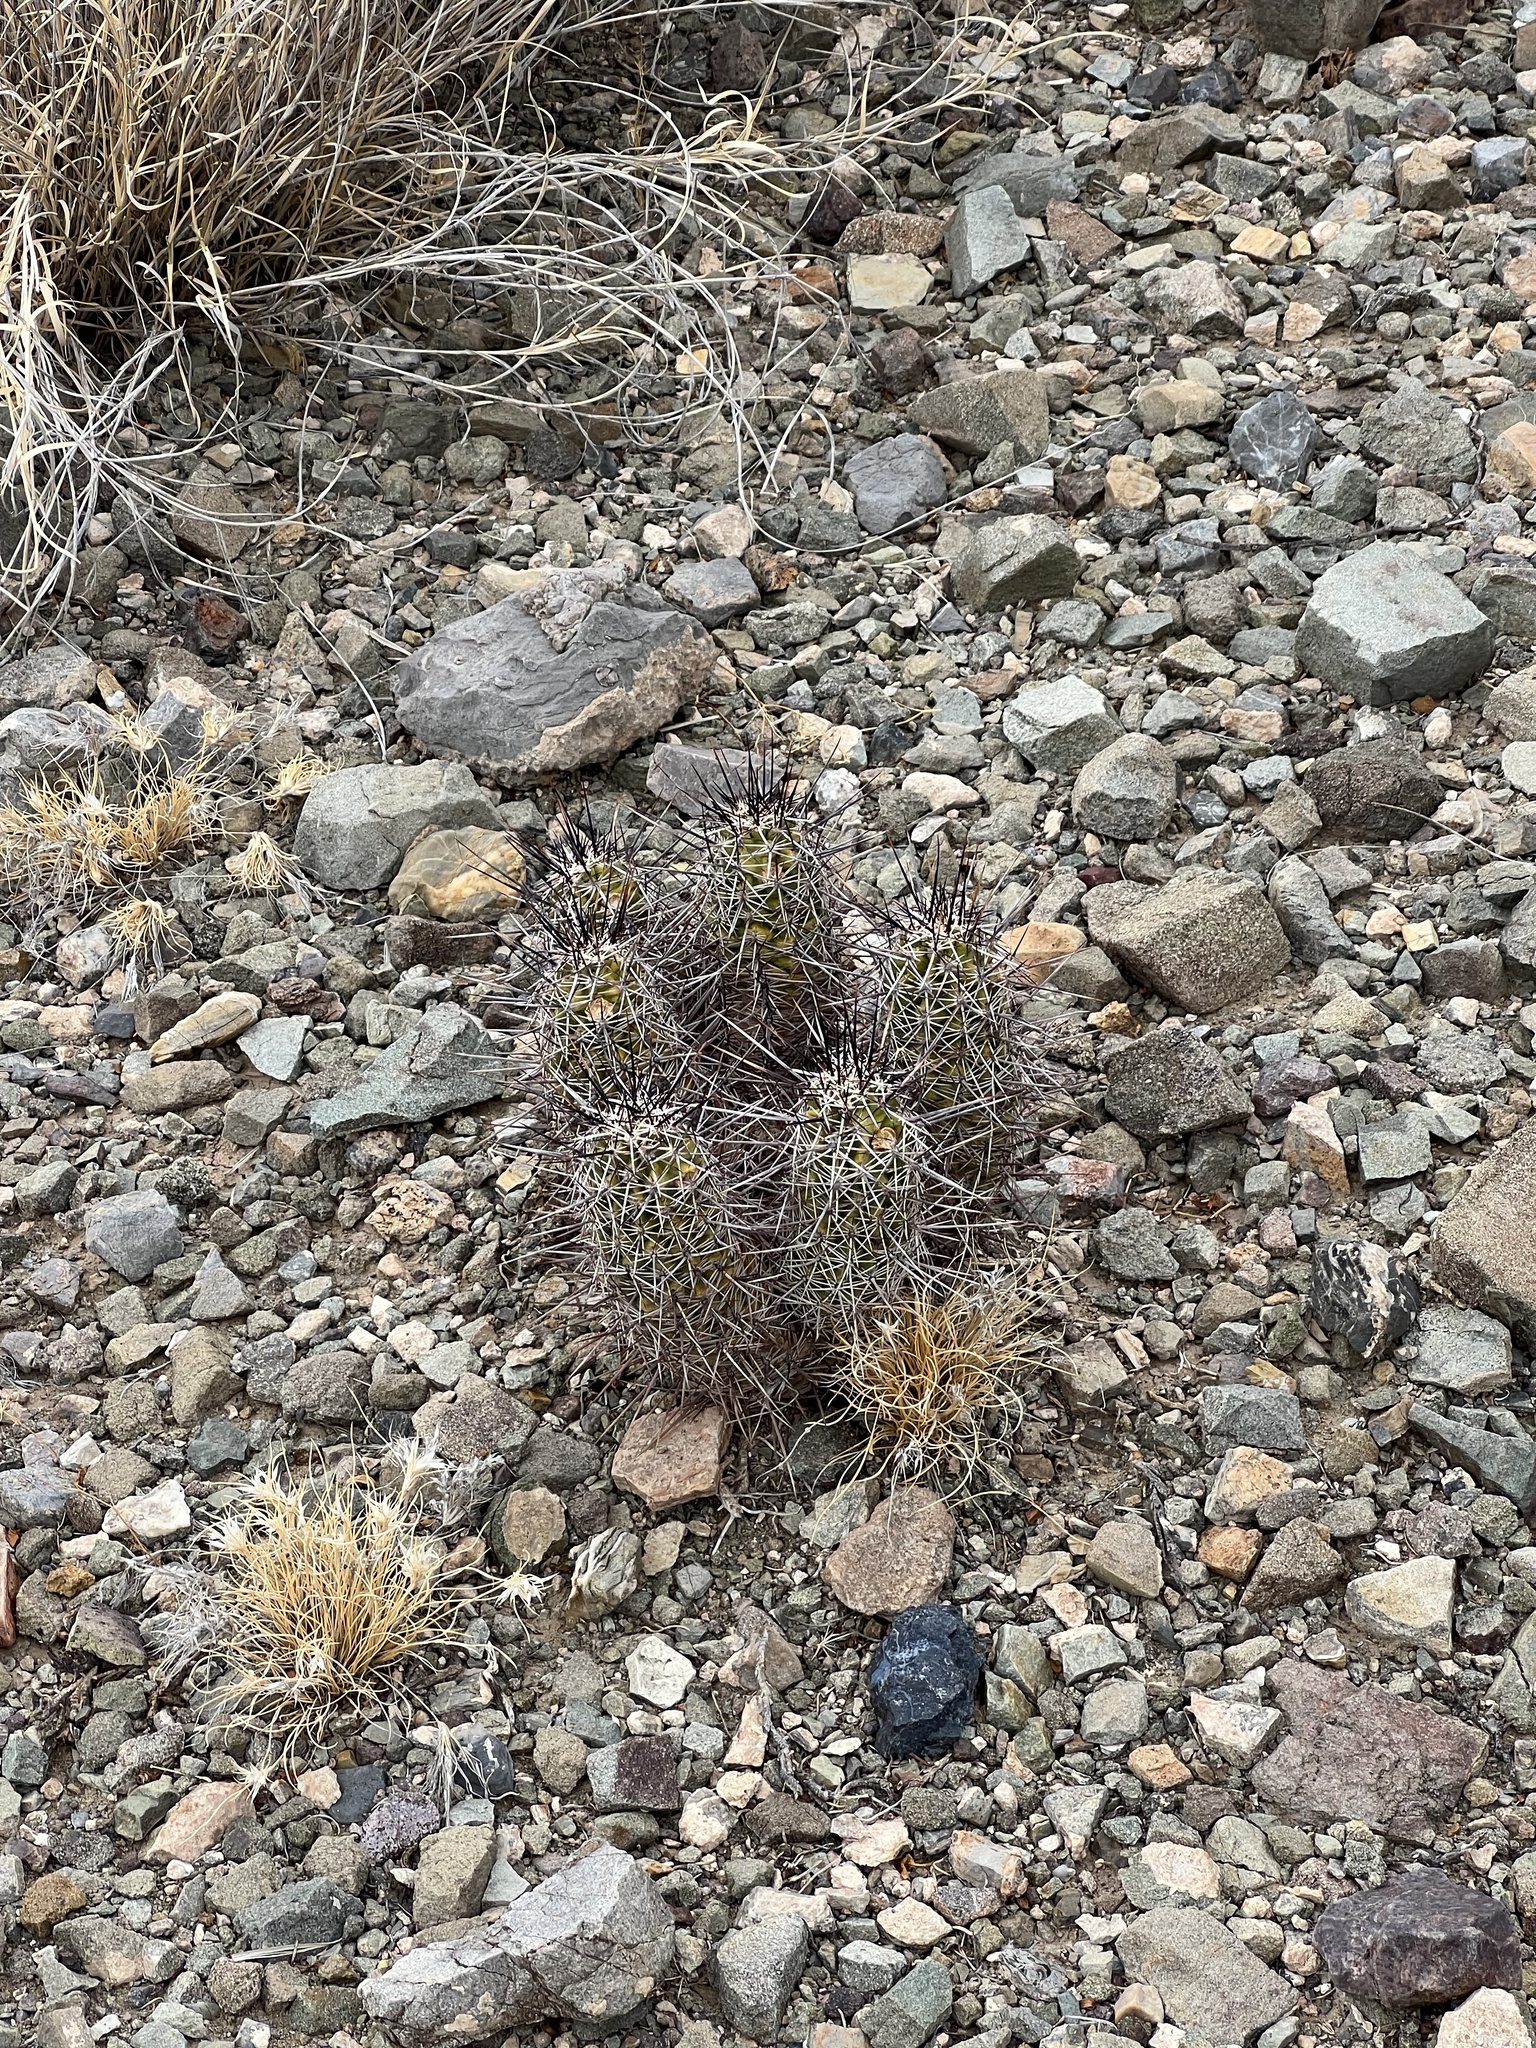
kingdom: Plantae
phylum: Tracheophyta
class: Magnoliopsida
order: Caryophyllales
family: Cactaceae
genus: Echinocereus
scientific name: Echinocereus fasciculatus
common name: Bundle hedgehog
